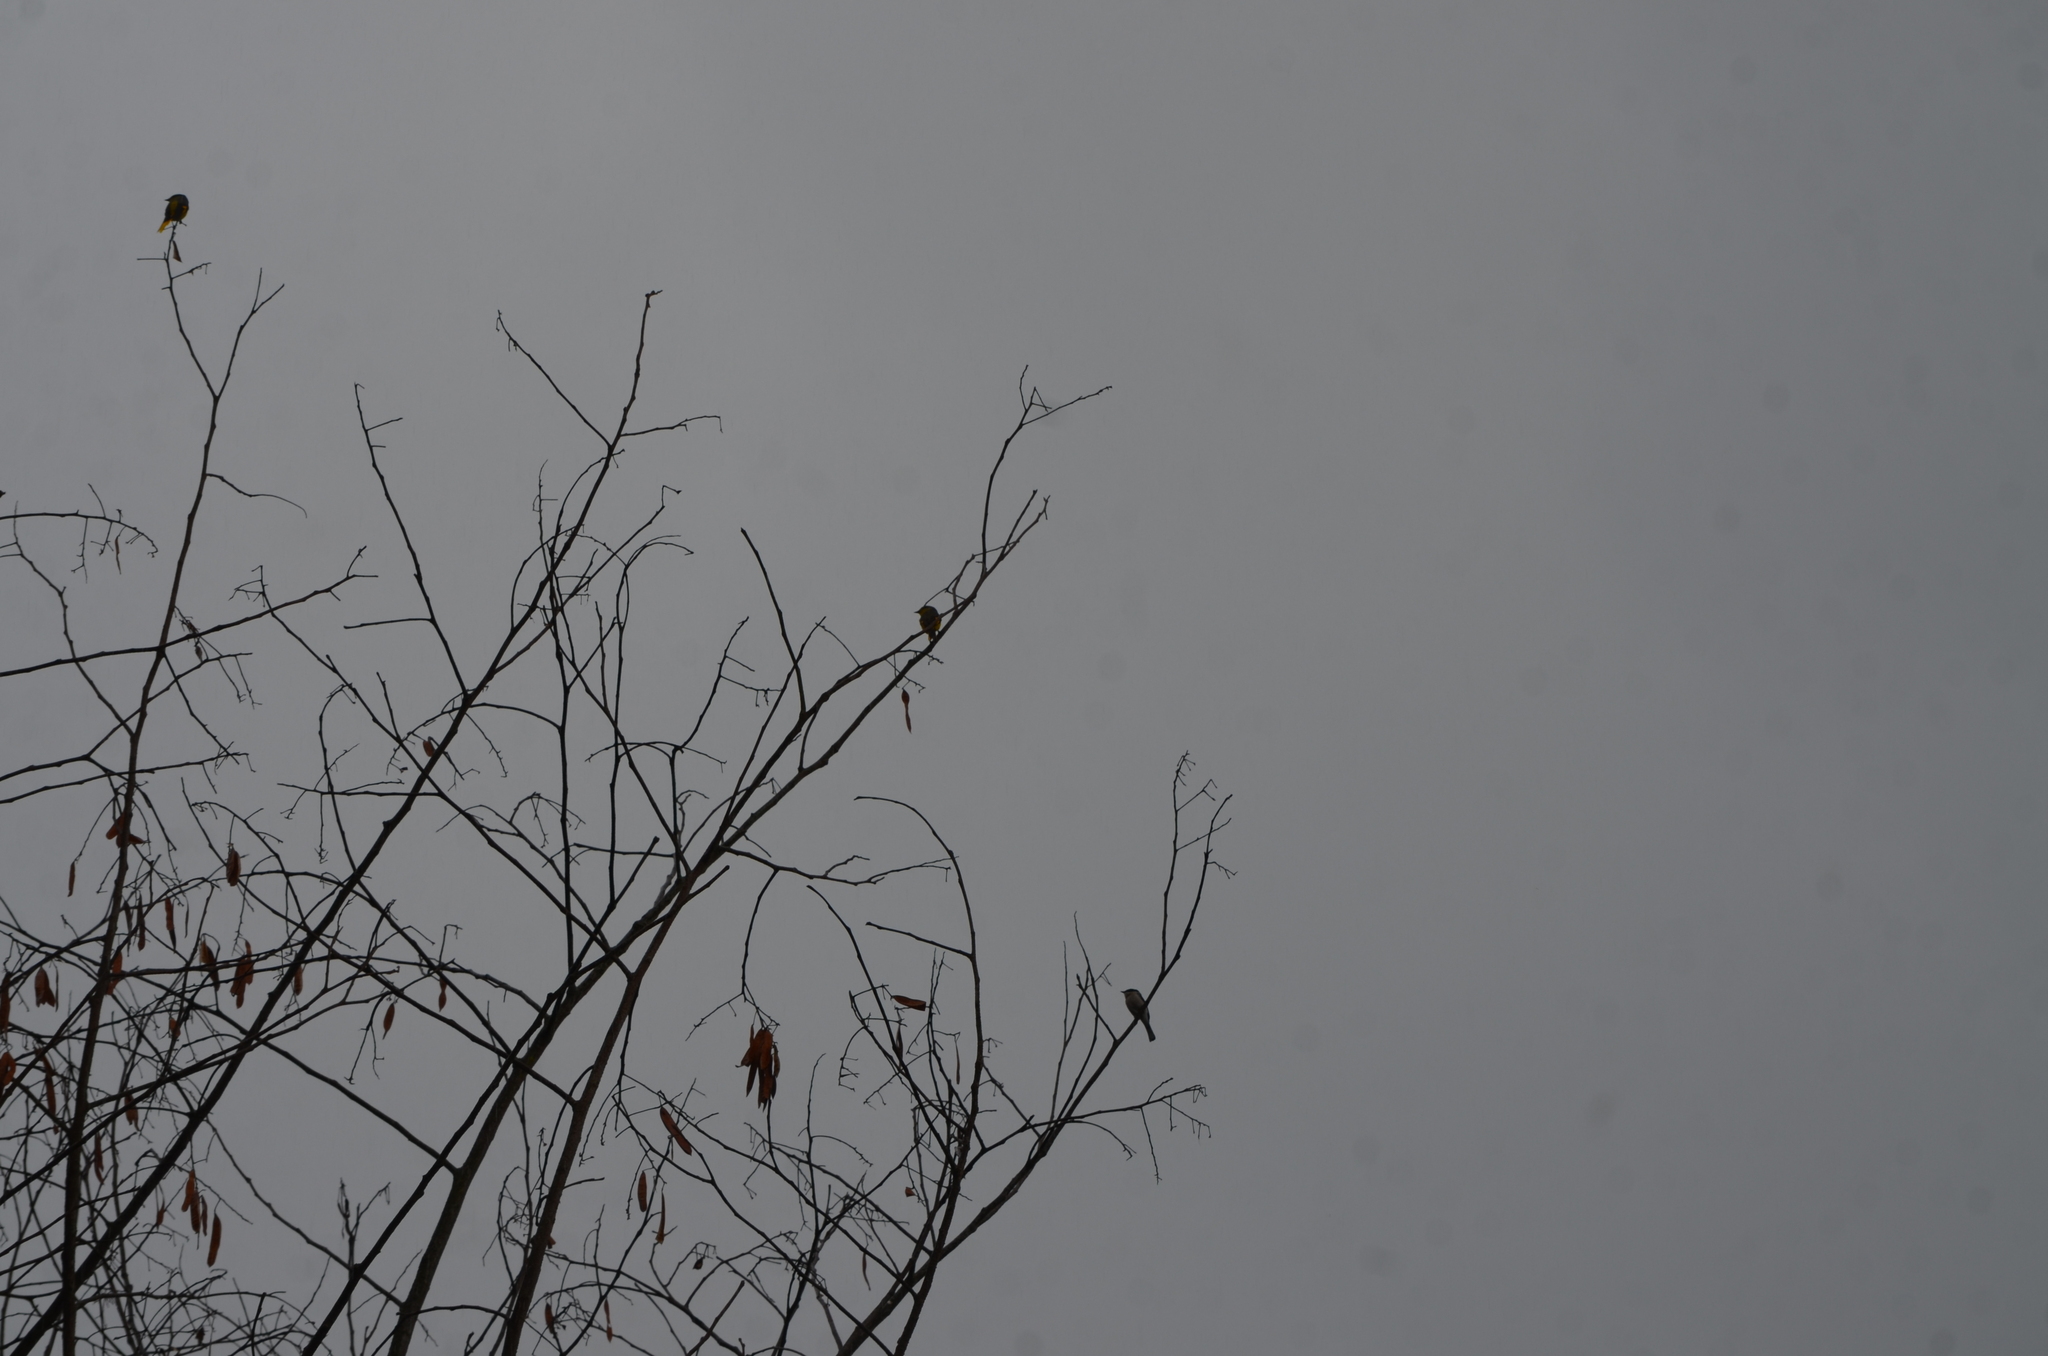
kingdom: Animalia
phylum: Chordata
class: Aves
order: Passeriformes
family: Tephrodornithidae
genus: Hemipus
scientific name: Hemipus picatus
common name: Bar-winged flycatcher-shrike
